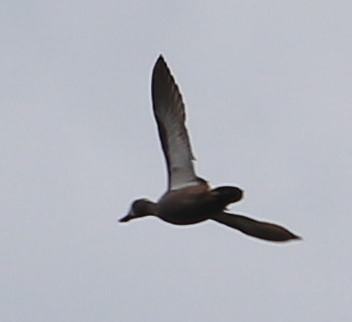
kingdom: Animalia
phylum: Chordata
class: Aves
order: Anseriformes
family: Anatidae
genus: Spatula
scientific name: Spatula discors
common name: Blue-winged teal
